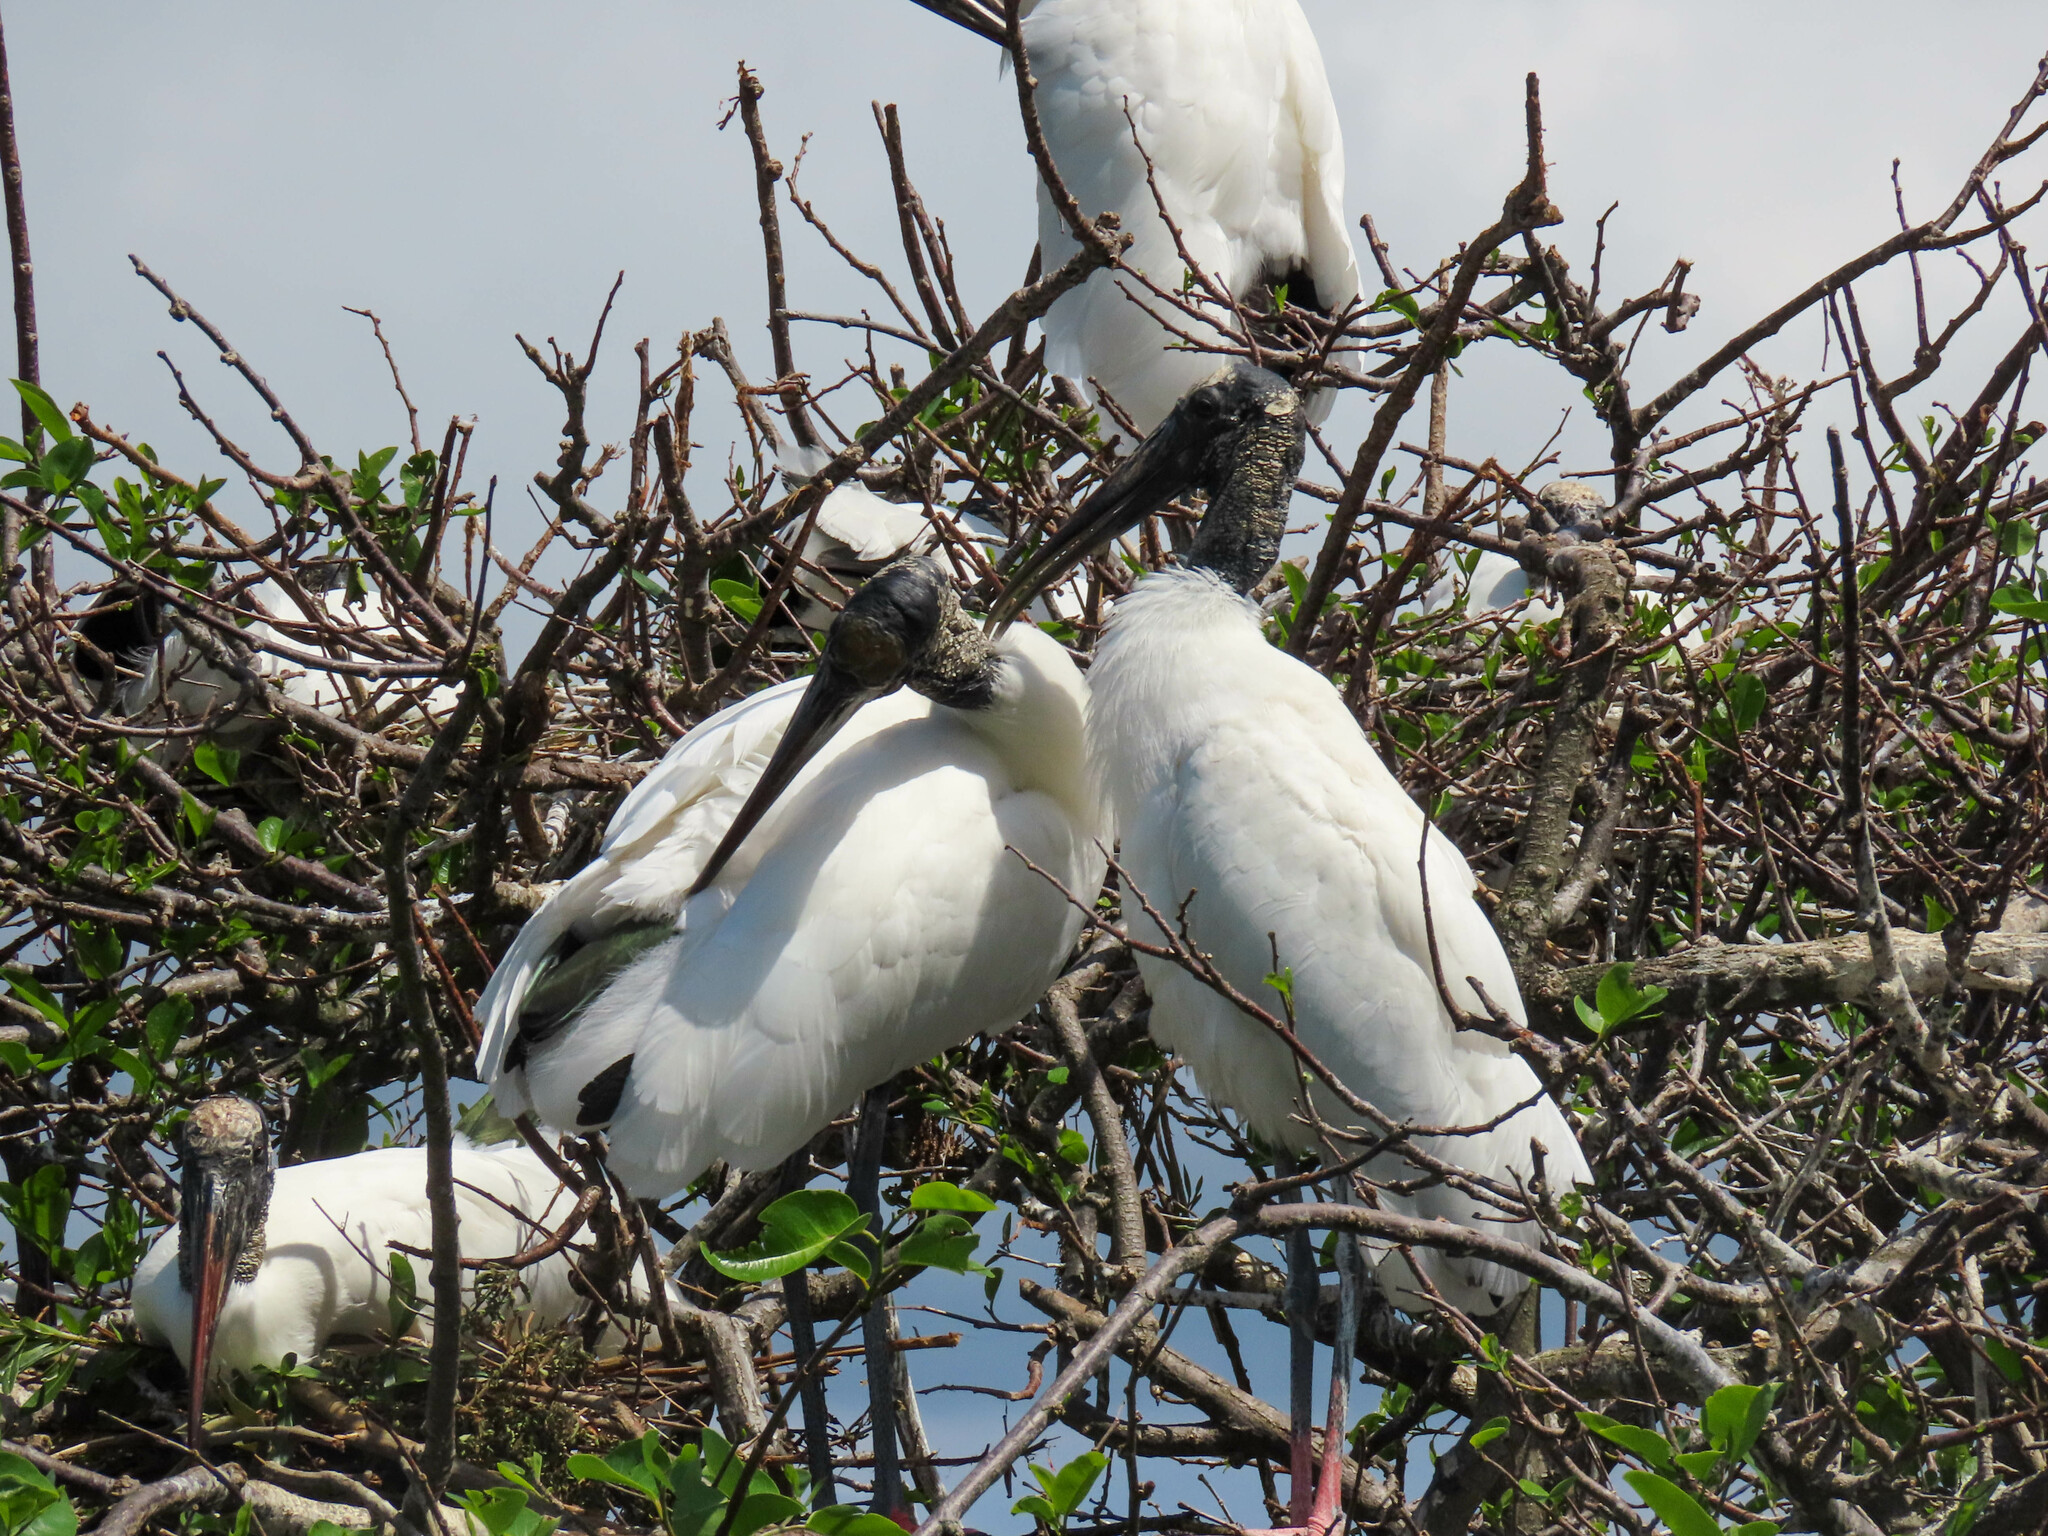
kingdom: Animalia
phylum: Chordata
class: Aves
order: Ciconiiformes
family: Ciconiidae
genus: Mycteria
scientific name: Mycteria americana
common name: Wood stork
